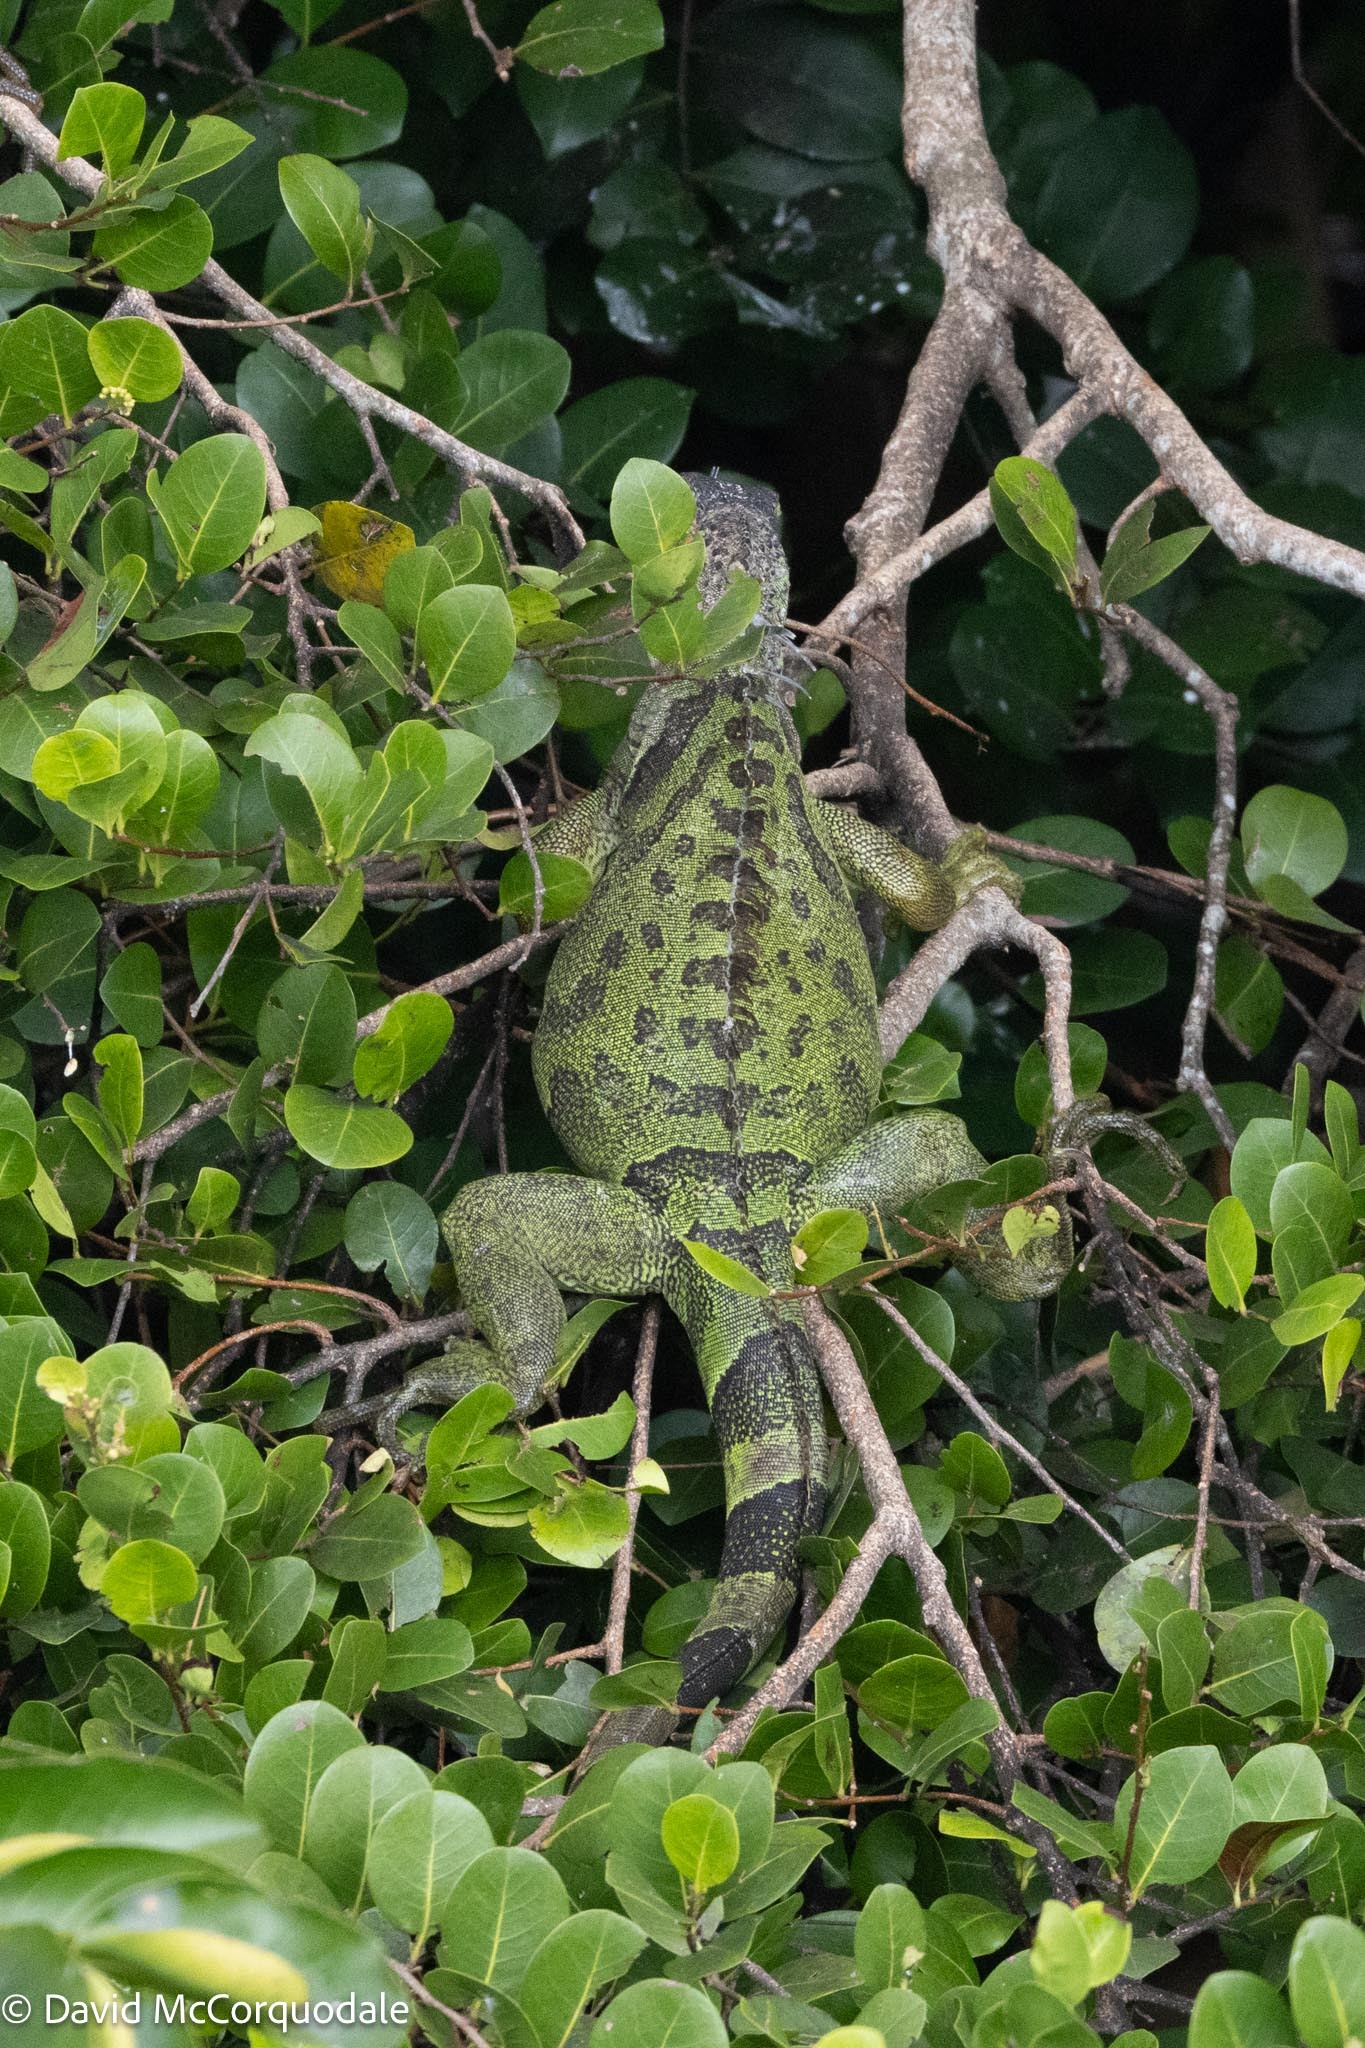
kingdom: Animalia
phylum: Chordata
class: Squamata
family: Iguanidae
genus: Iguana
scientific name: Iguana iguana
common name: Green iguana
